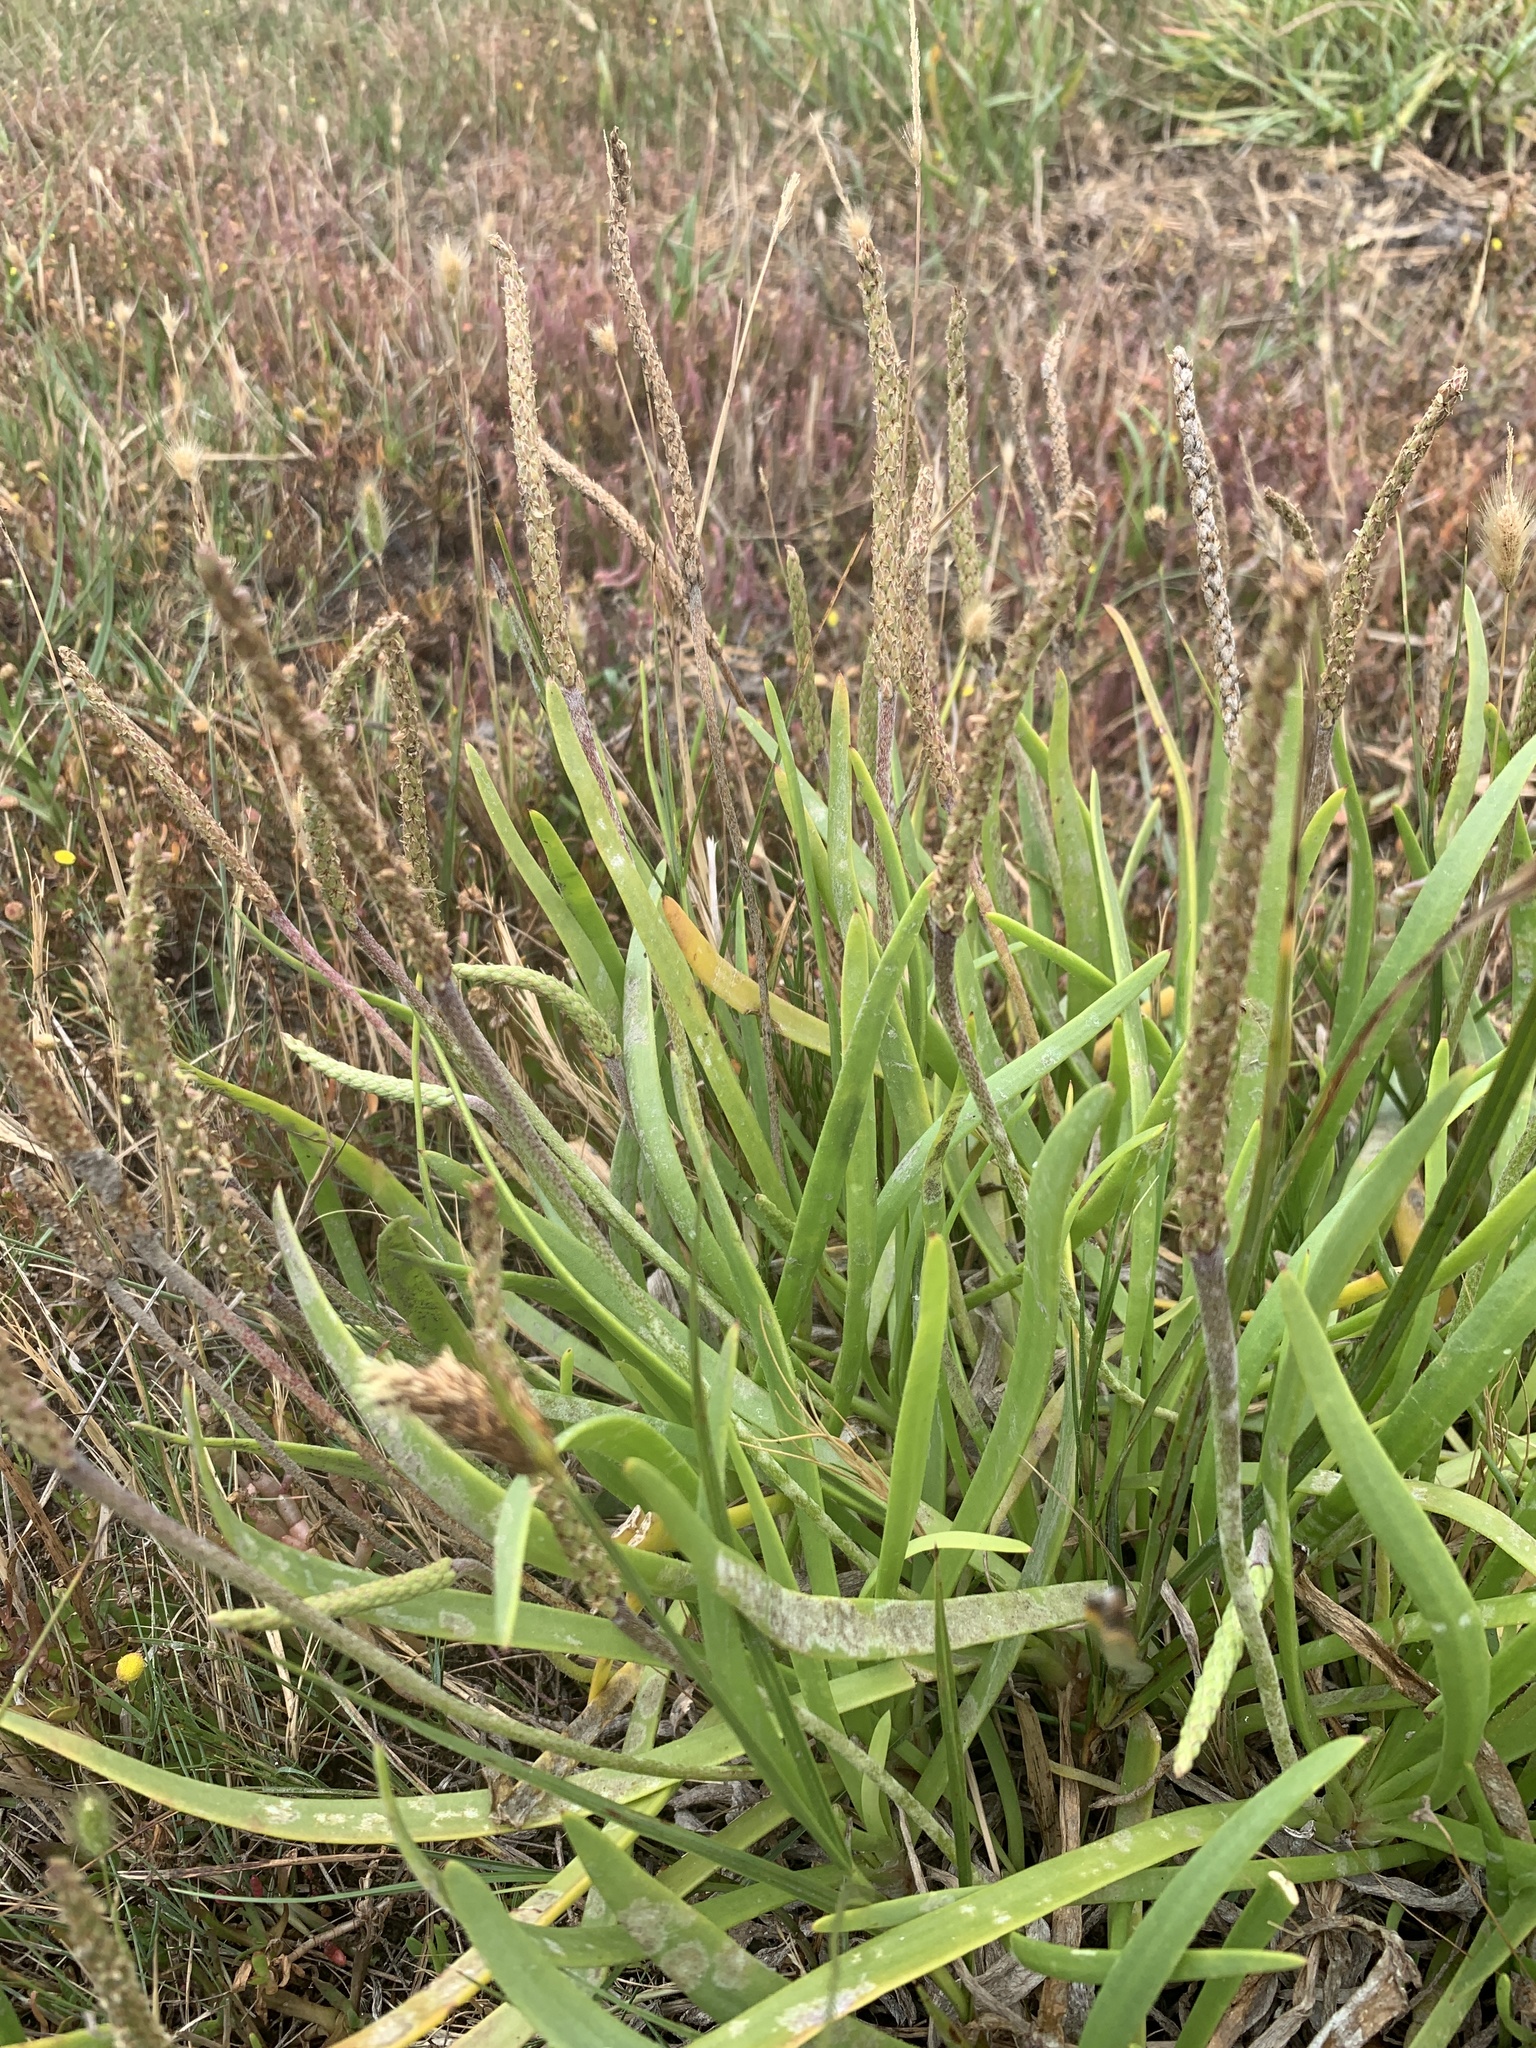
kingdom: Plantae
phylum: Tracheophyta
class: Magnoliopsida
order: Lamiales
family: Plantaginaceae
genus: Plantago
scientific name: Plantago carnosa
